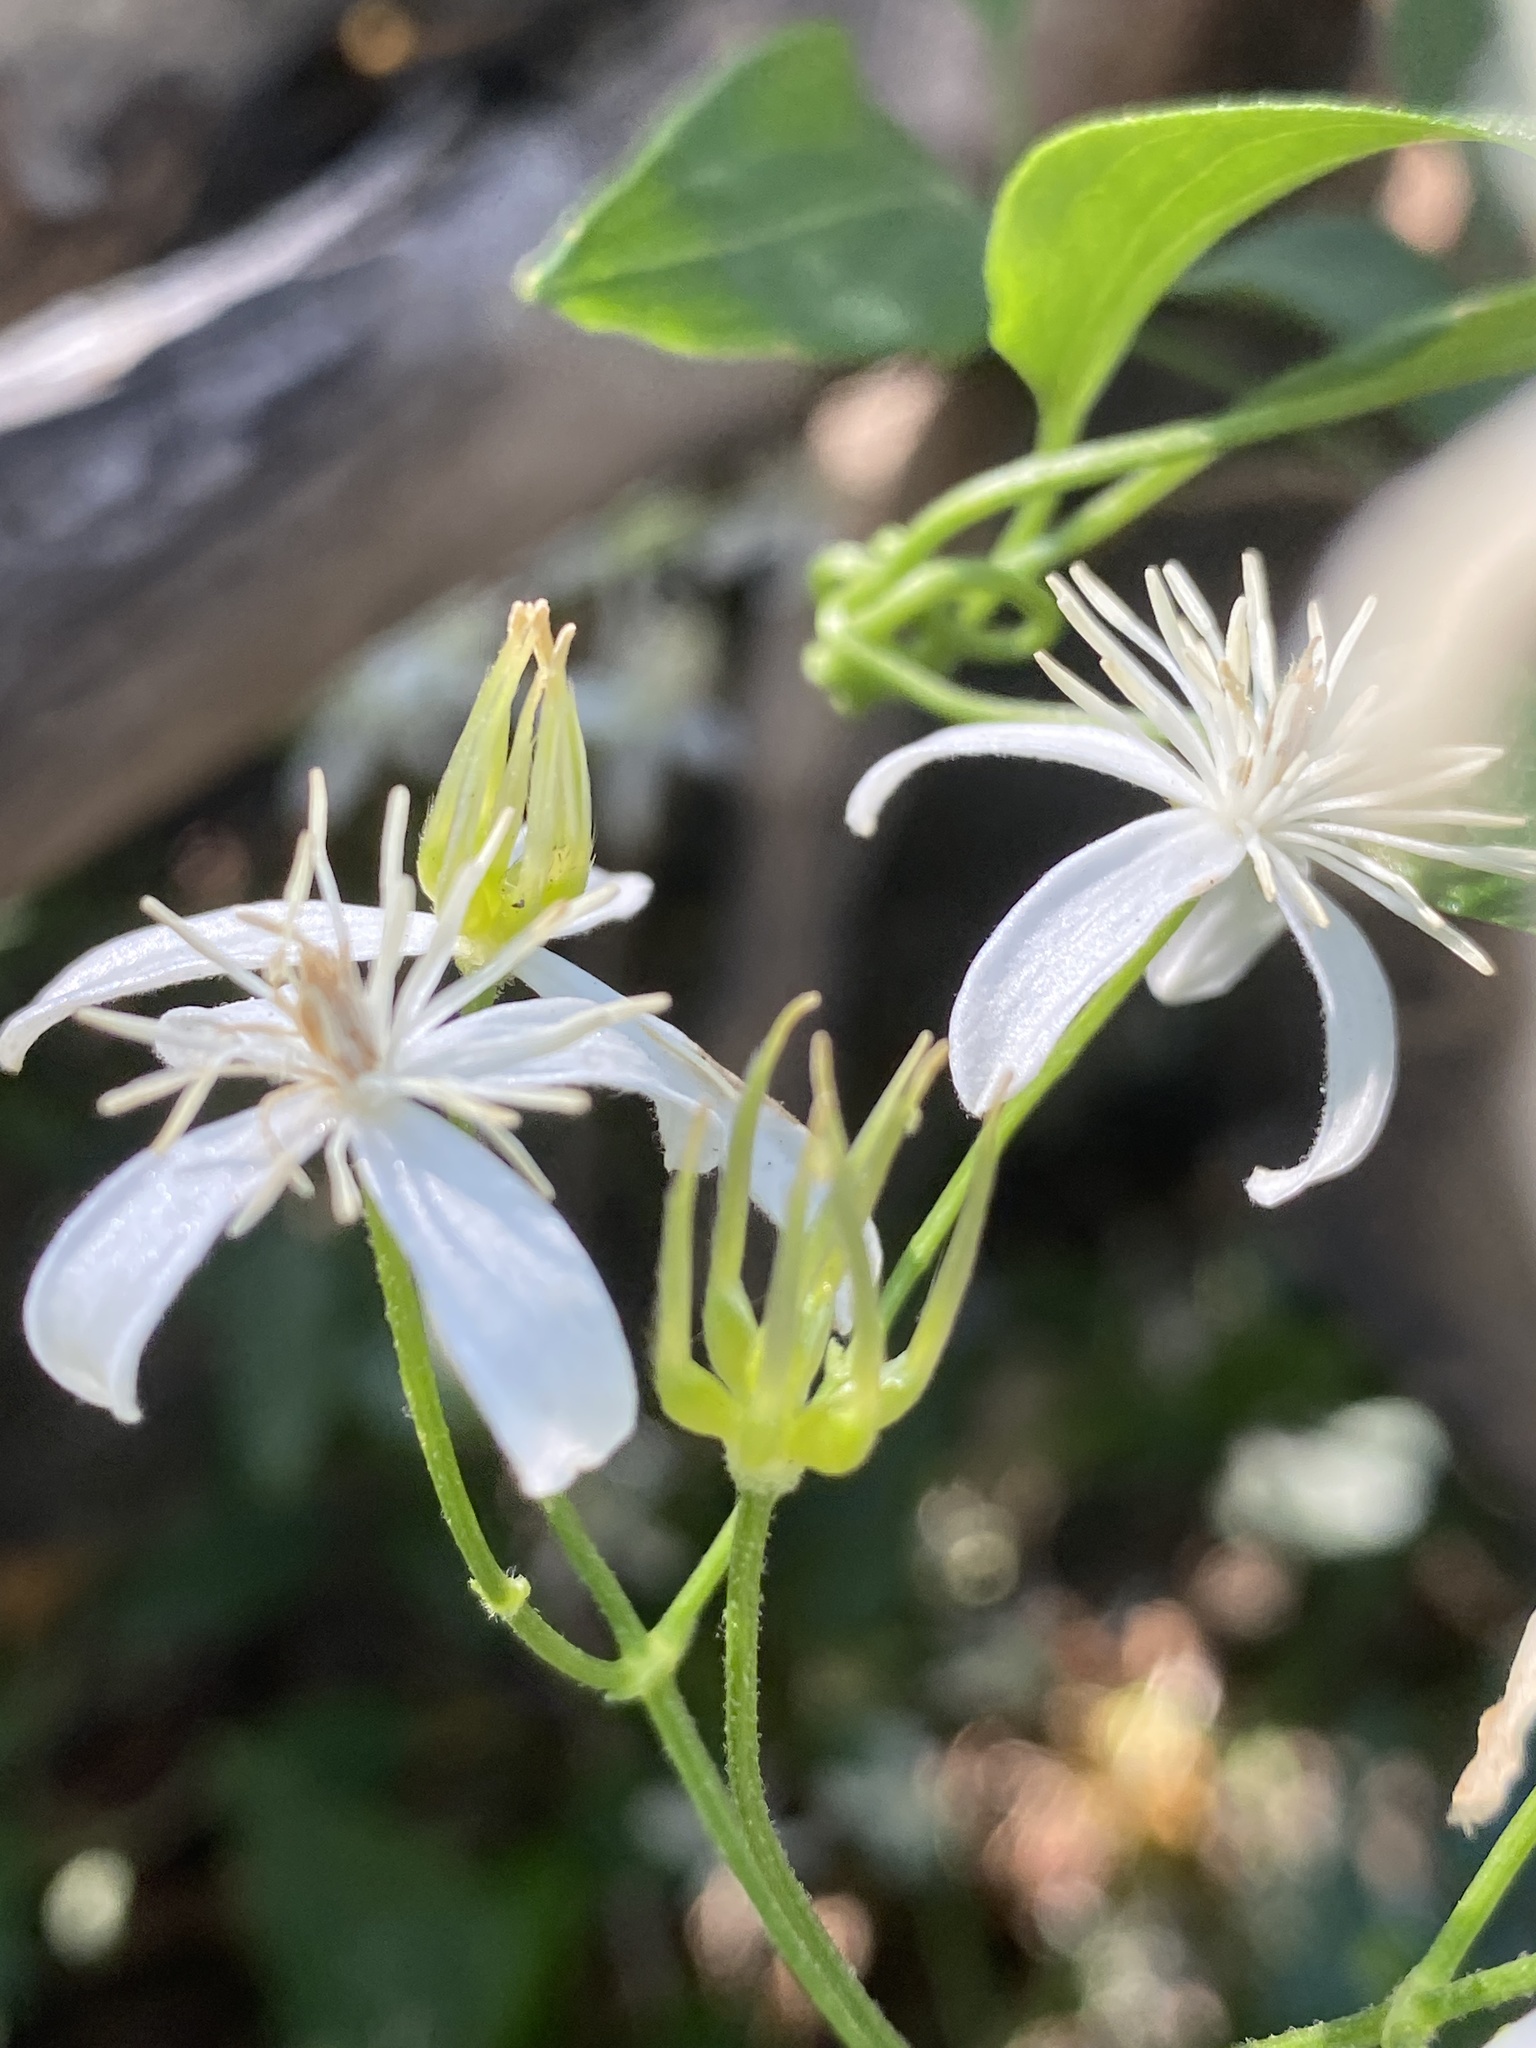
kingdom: Plantae
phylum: Tracheophyta
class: Magnoliopsida
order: Ranunculales
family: Ranunculaceae
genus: Clematis
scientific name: Clematis terniflora
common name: Sweet autumn clematis
